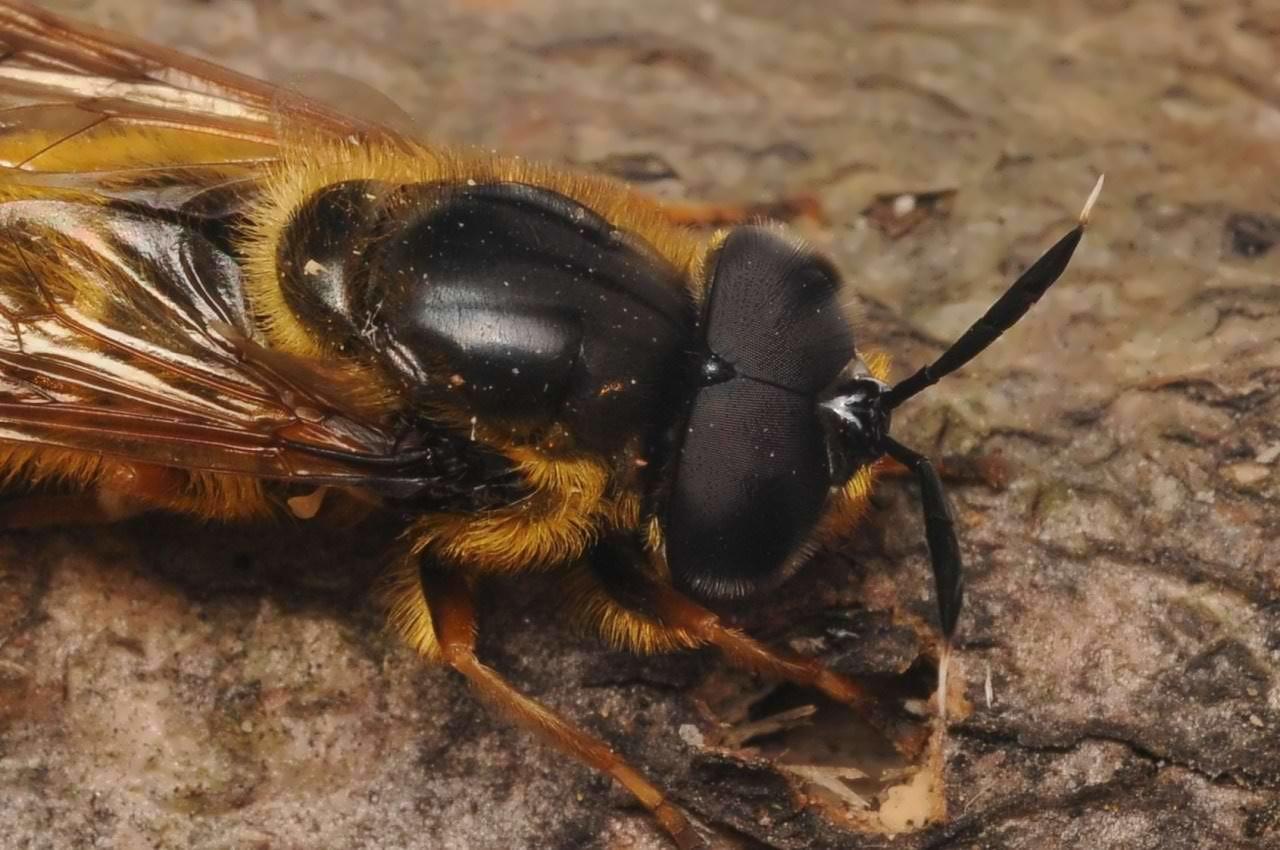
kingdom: Animalia
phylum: Arthropoda
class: Insecta
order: Diptera
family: Syrphidae
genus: Callicera
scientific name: Callicera aenea
